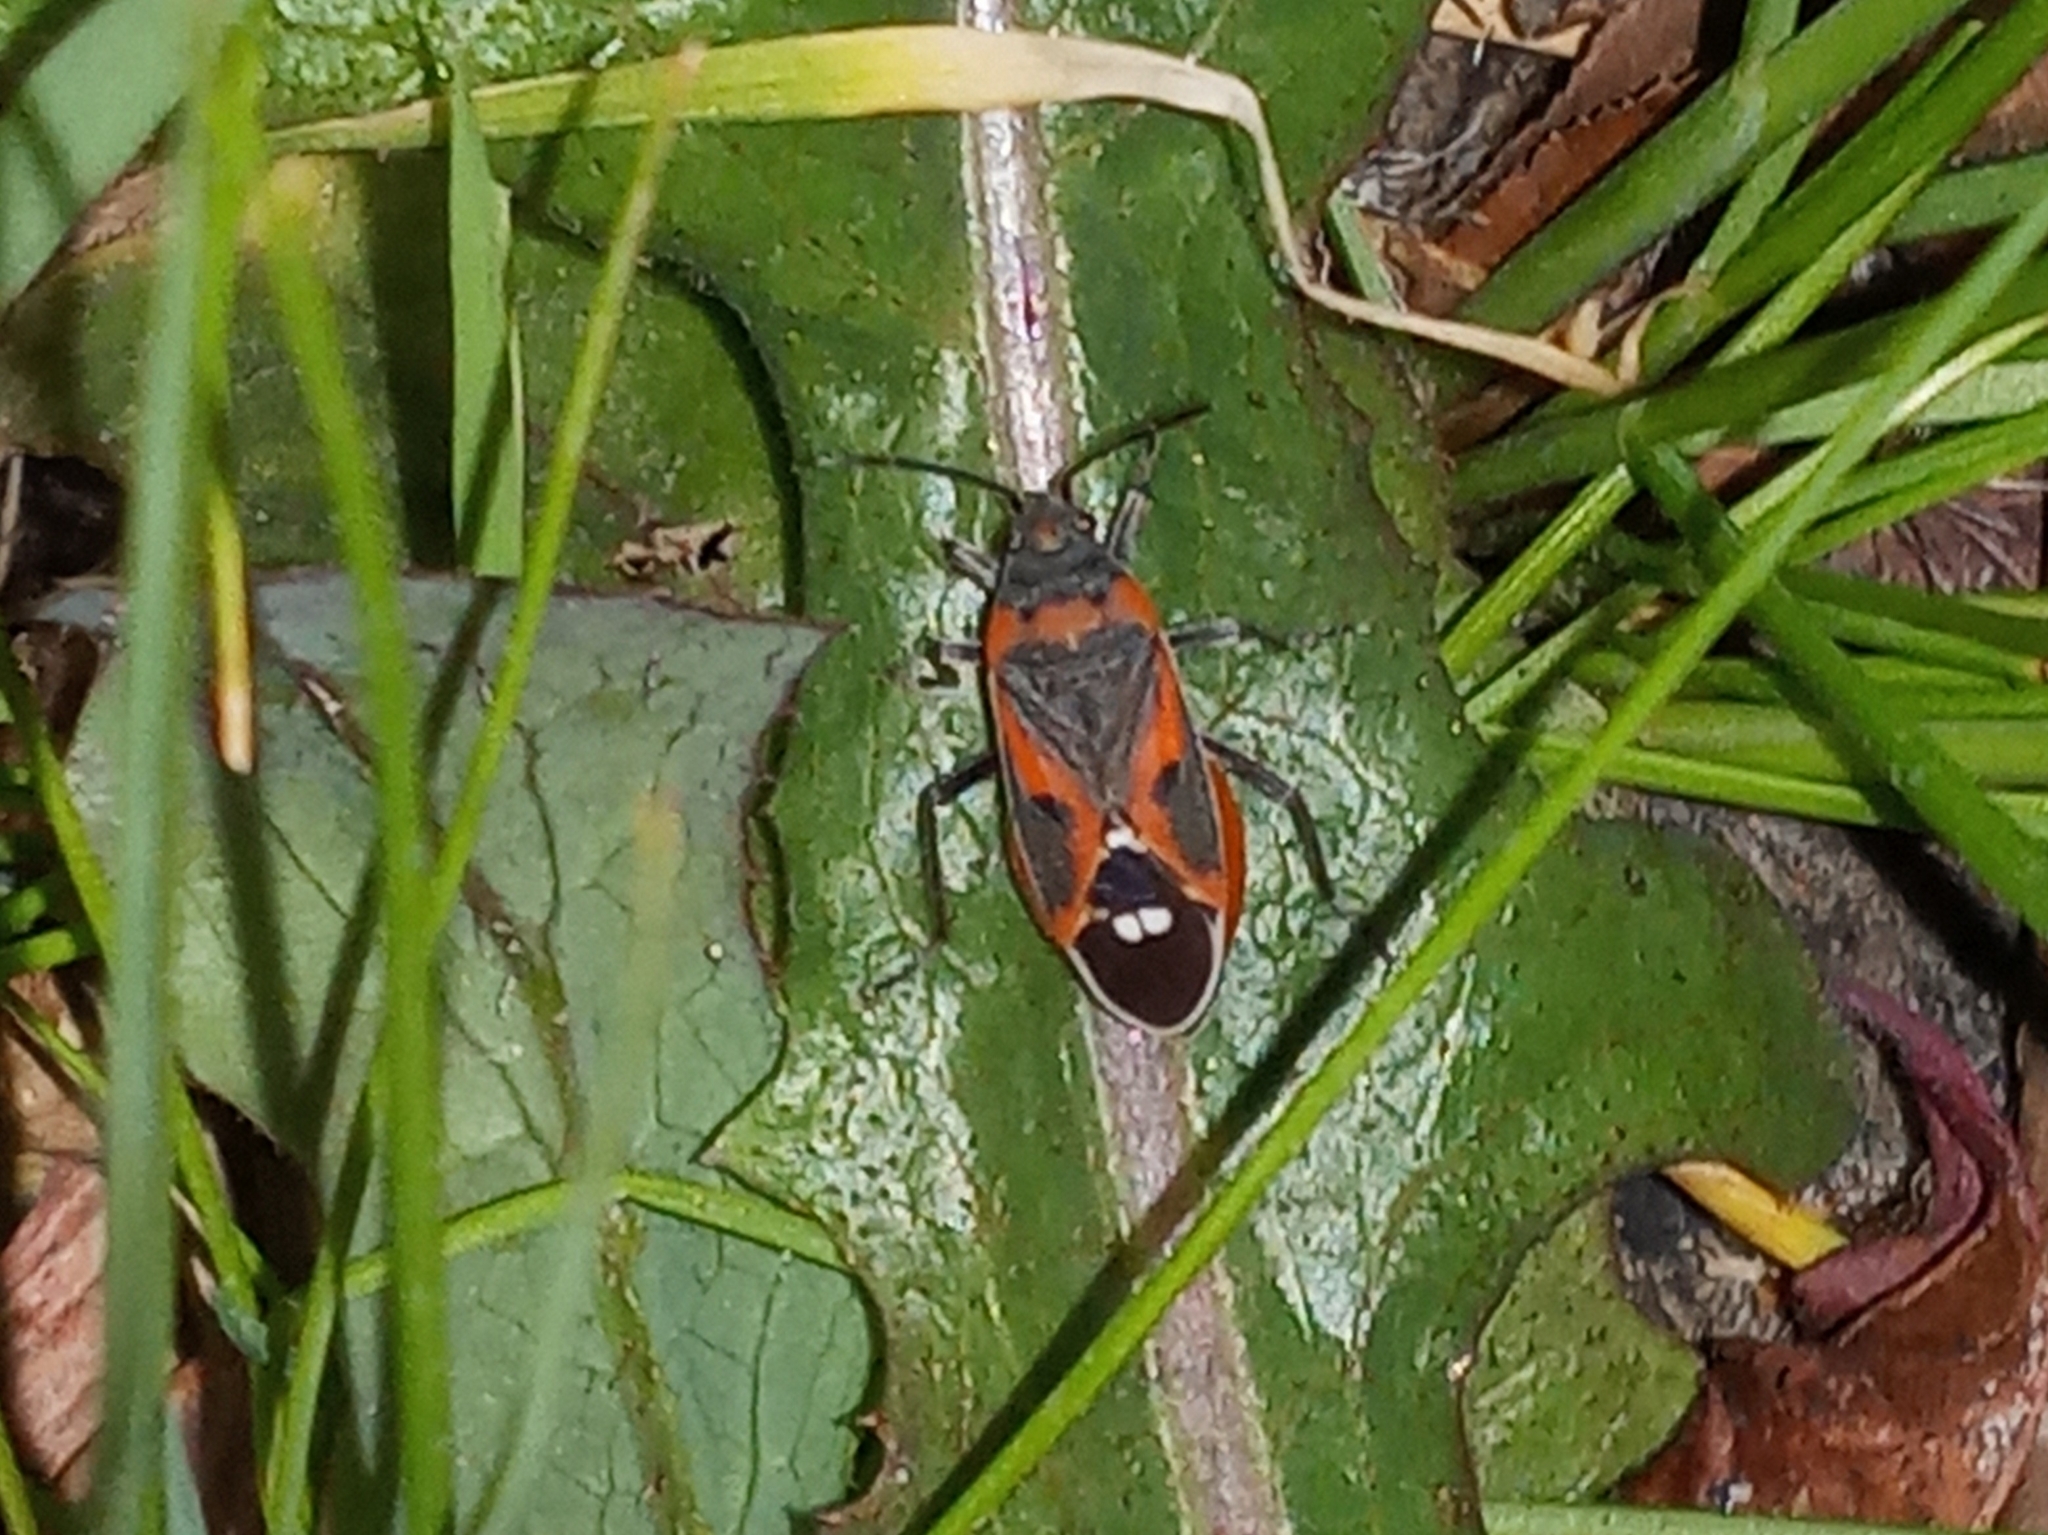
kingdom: Animalia
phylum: Arthropoda
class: Insecta
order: Hemiptera
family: Lygaeidae
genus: Lygaeus
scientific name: Lygaeus kalmii
